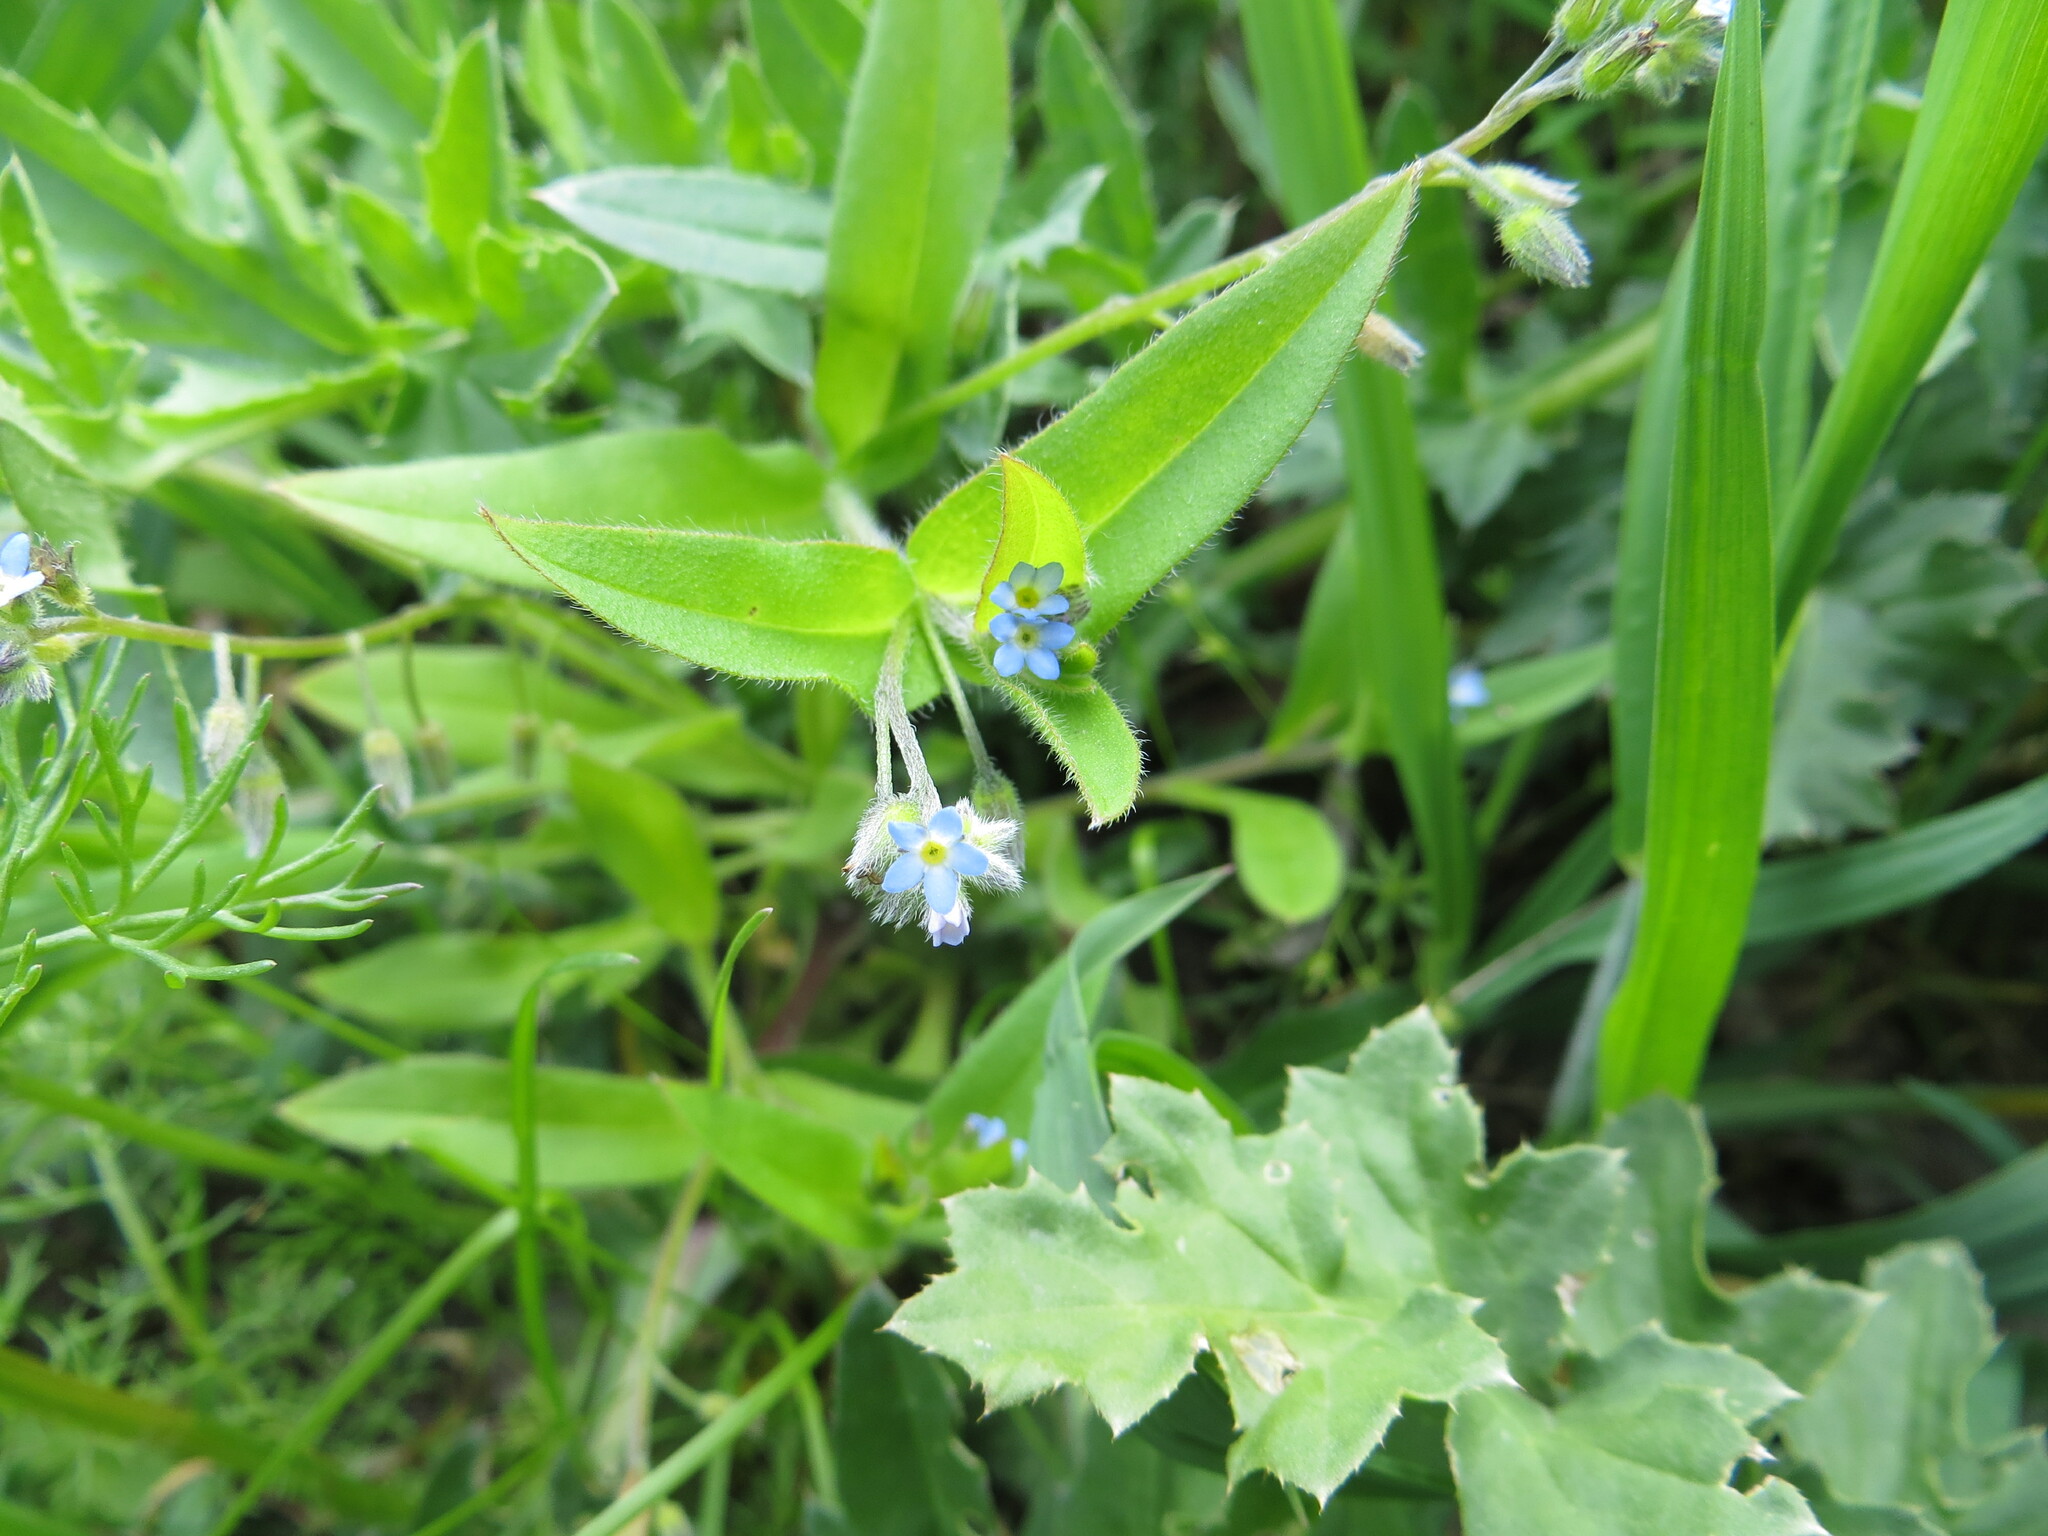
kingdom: Plantae
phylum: Tracheophyta
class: Magnoliopsida
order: Boraginales
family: Boraginaceae
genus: Myosotis
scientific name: Myosotis sparsiflora
